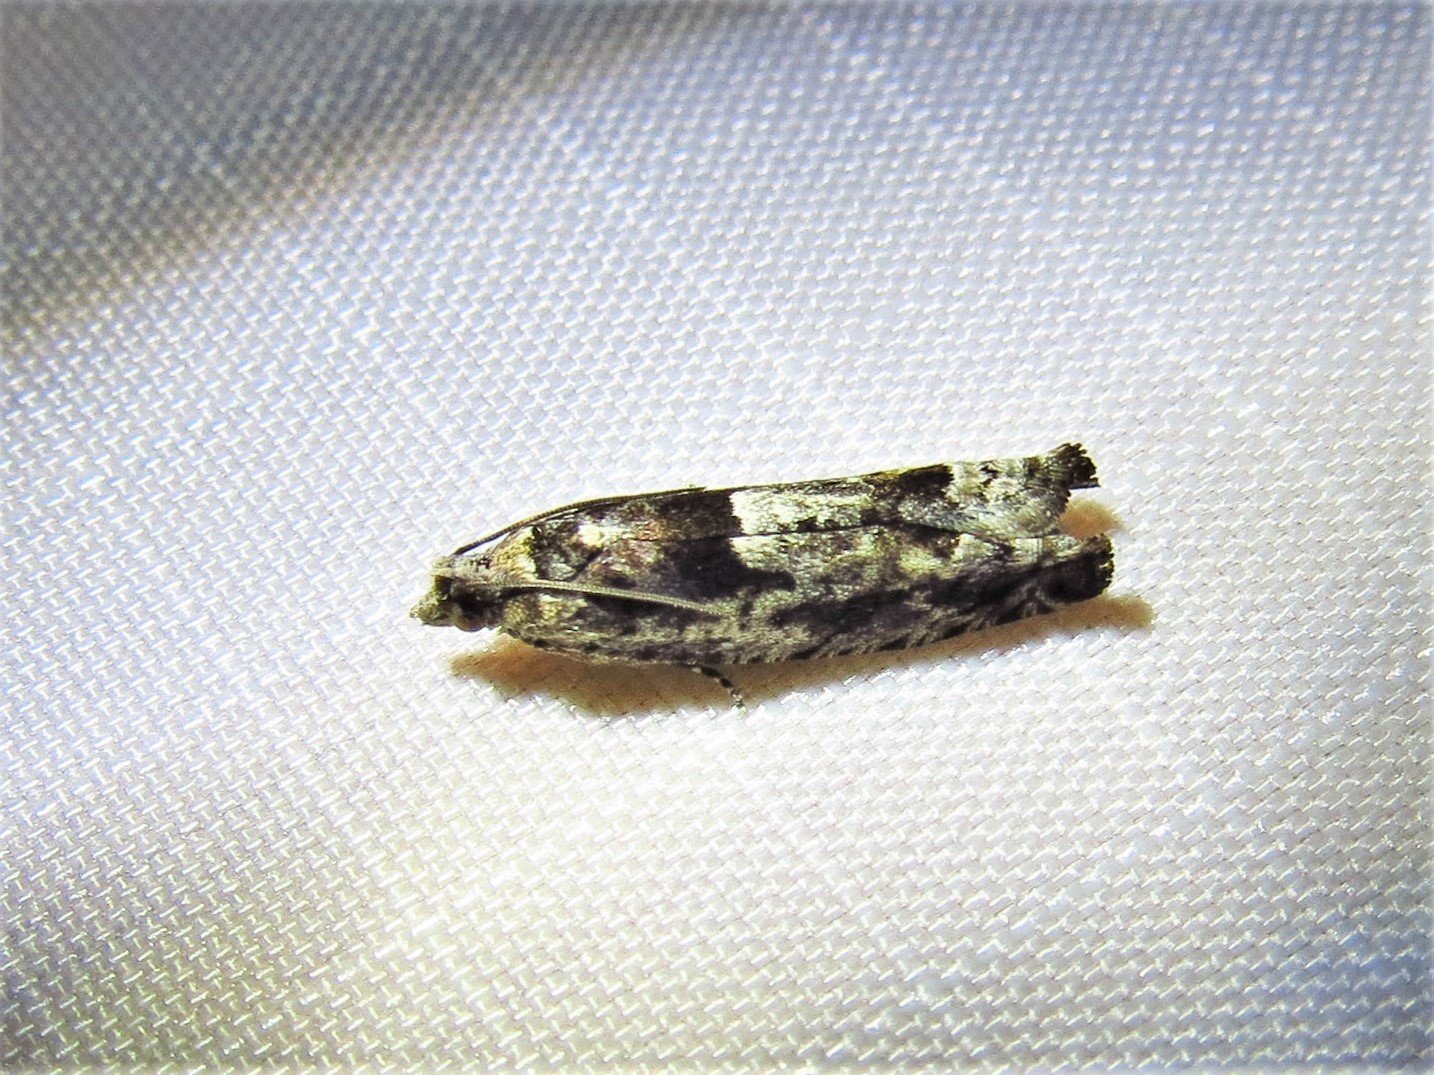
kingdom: Animalia
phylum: Arthropoda
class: Insecta
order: Lepidoptera
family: Tortricidae
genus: Pseudexentera
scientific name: Pseudexentera spoliana
